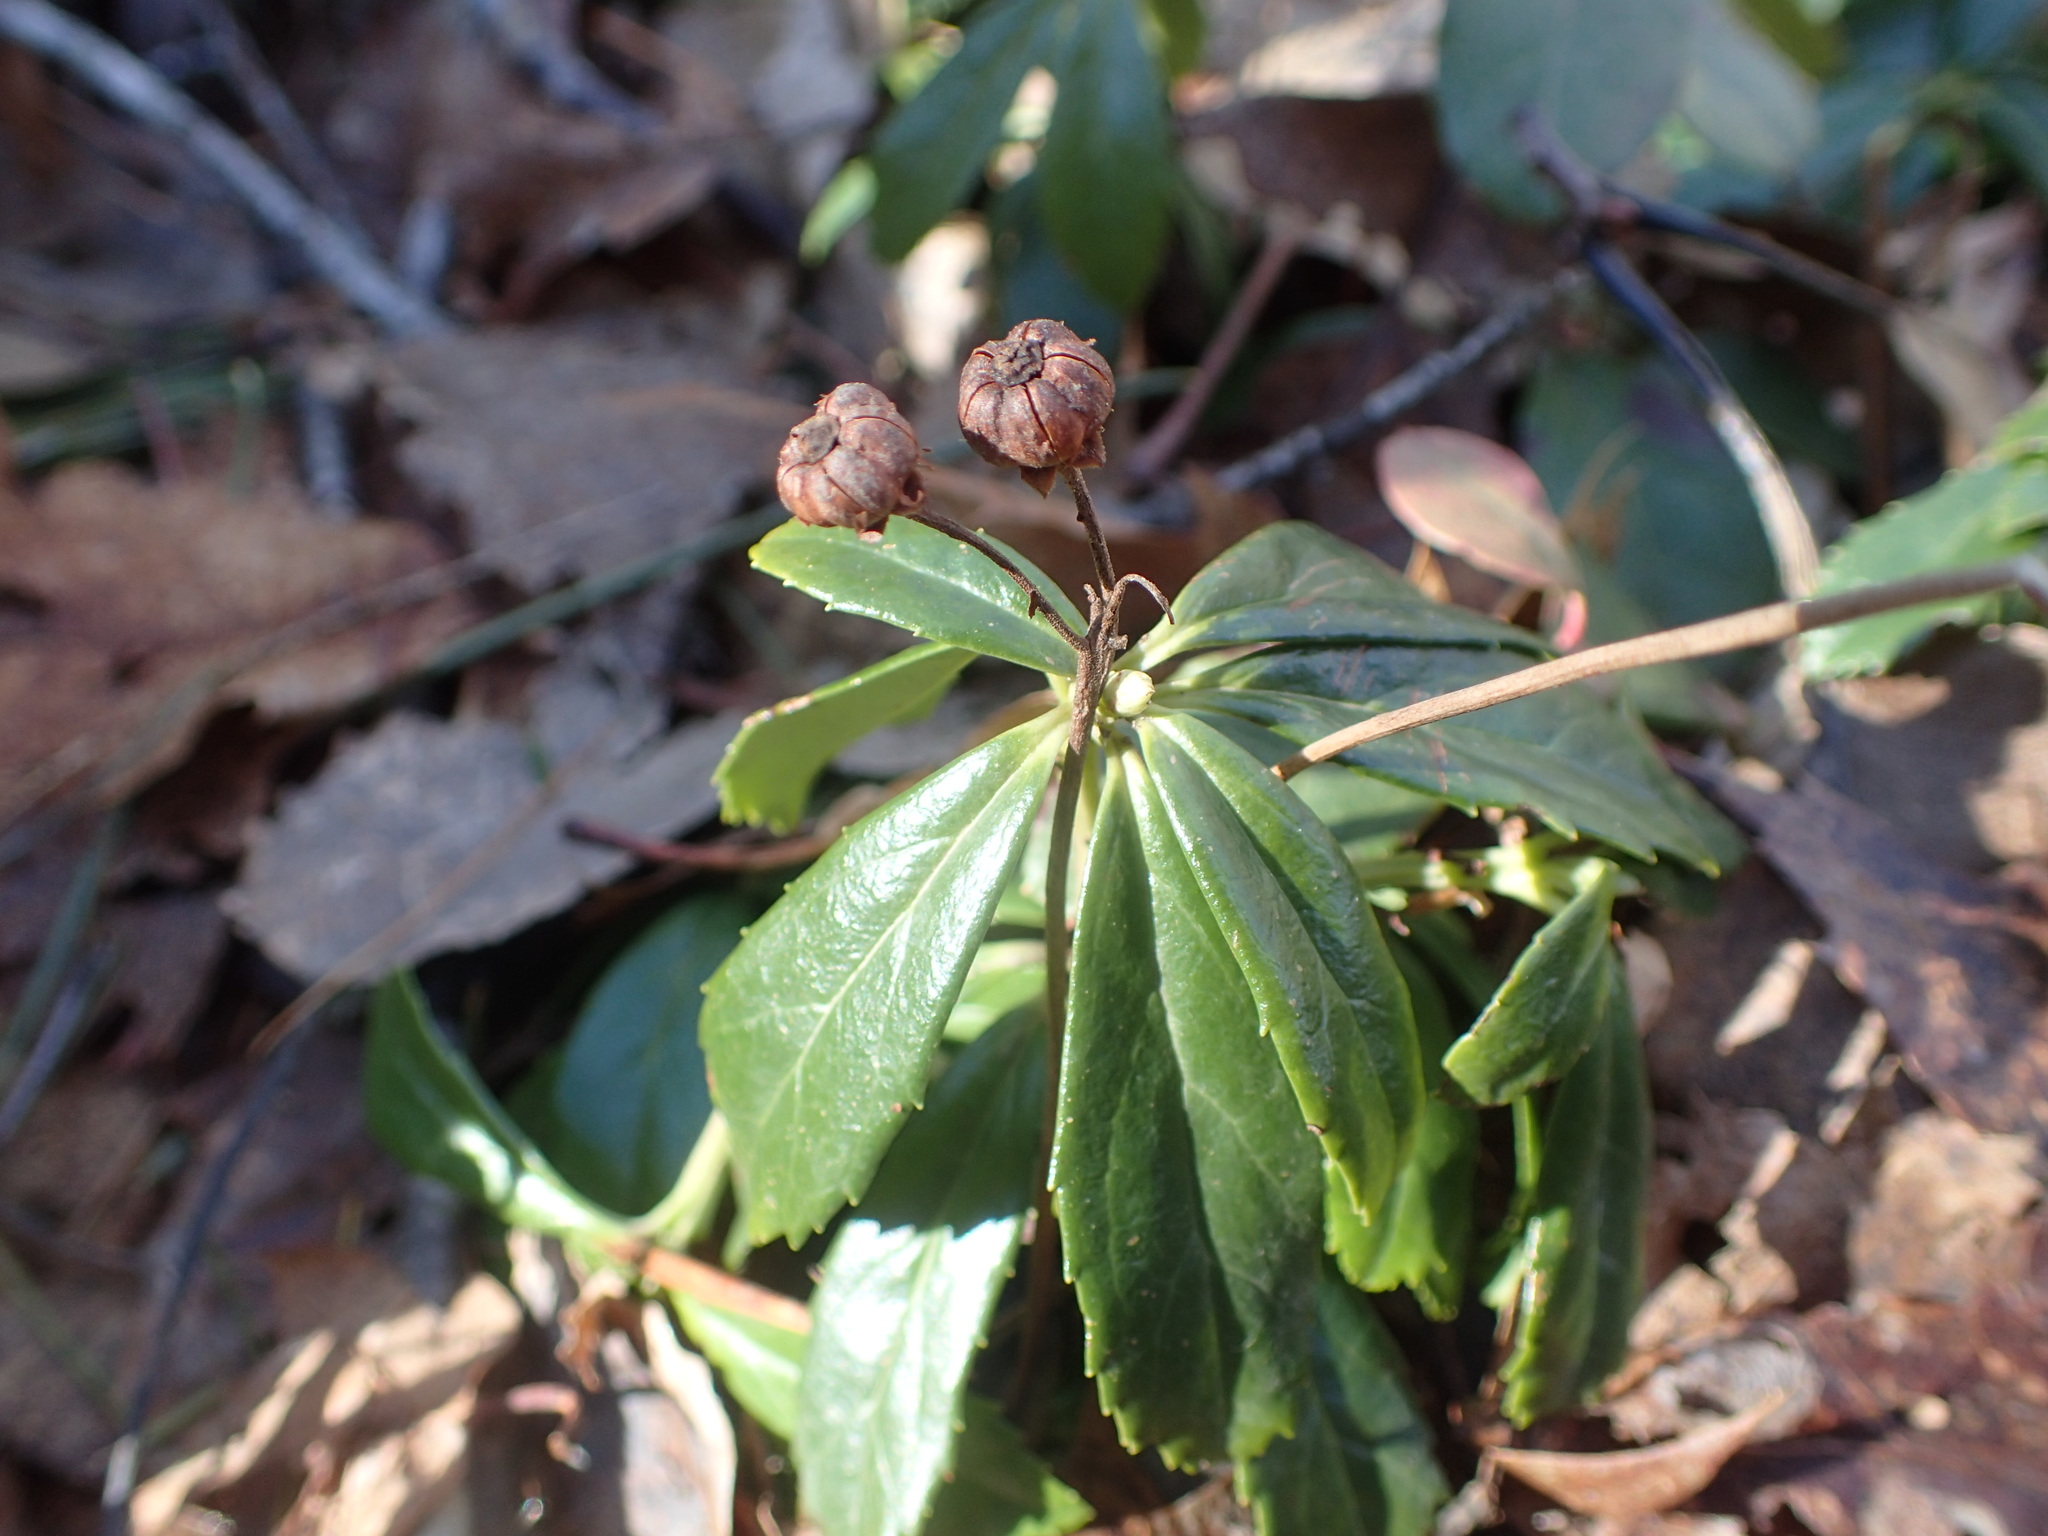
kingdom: Plantae
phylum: Tracheophyta
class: Magnoliopsida
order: Ericales
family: Ericaceae
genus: Chimaphila
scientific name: Chimaphila umbellata
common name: Pipsissewa
